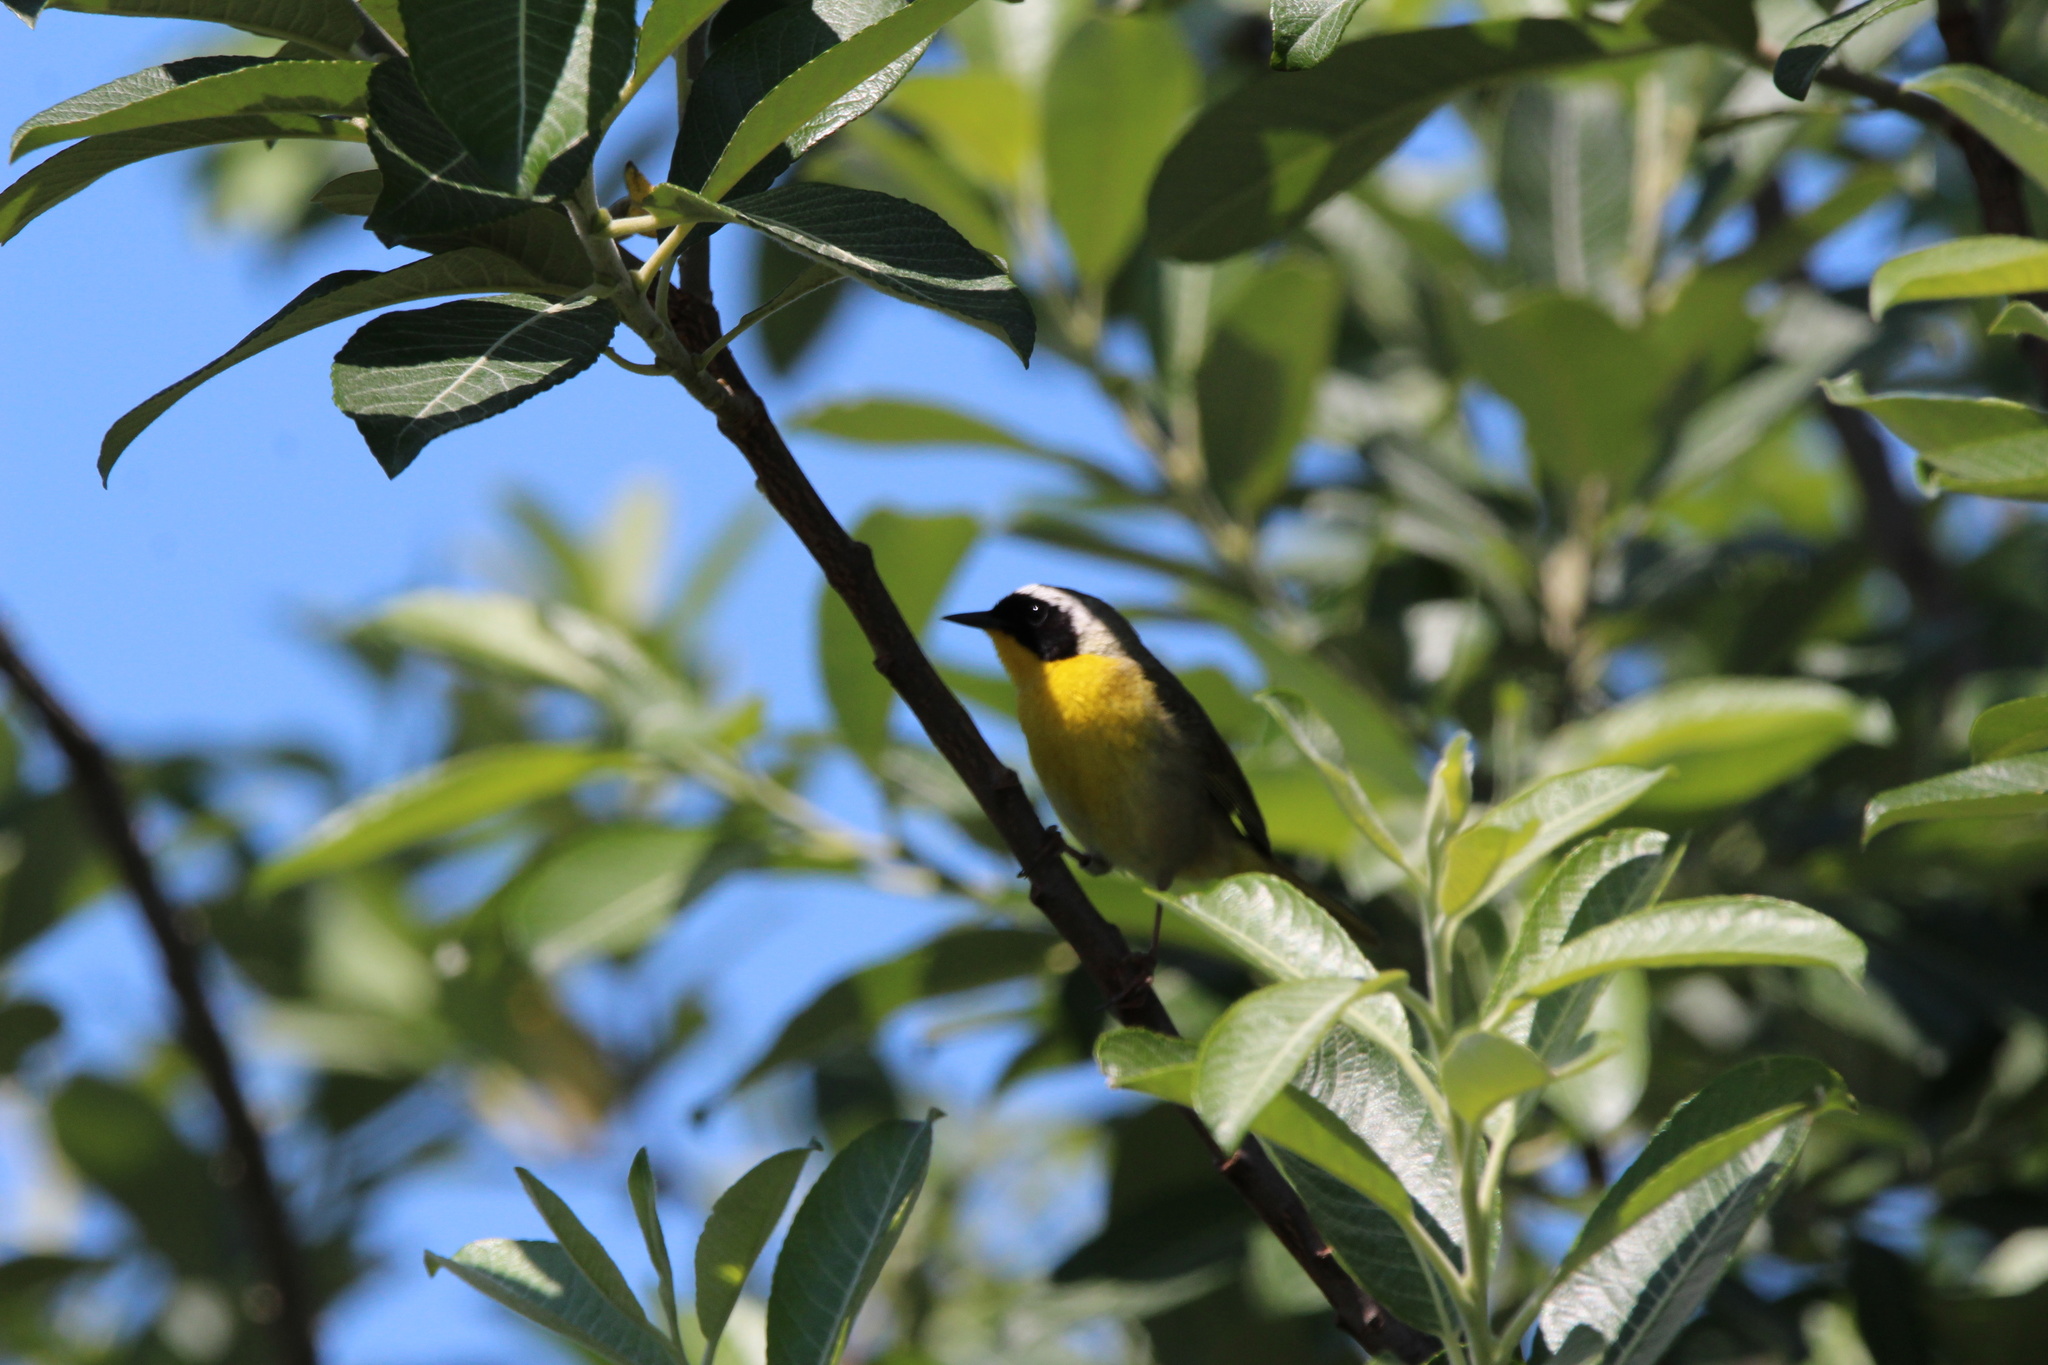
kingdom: Animalia
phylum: Chordata
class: Aves
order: Passeriformes
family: Parulidae
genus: Geothlypis
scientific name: Geothlypis trichas
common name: Common yellowthroat
